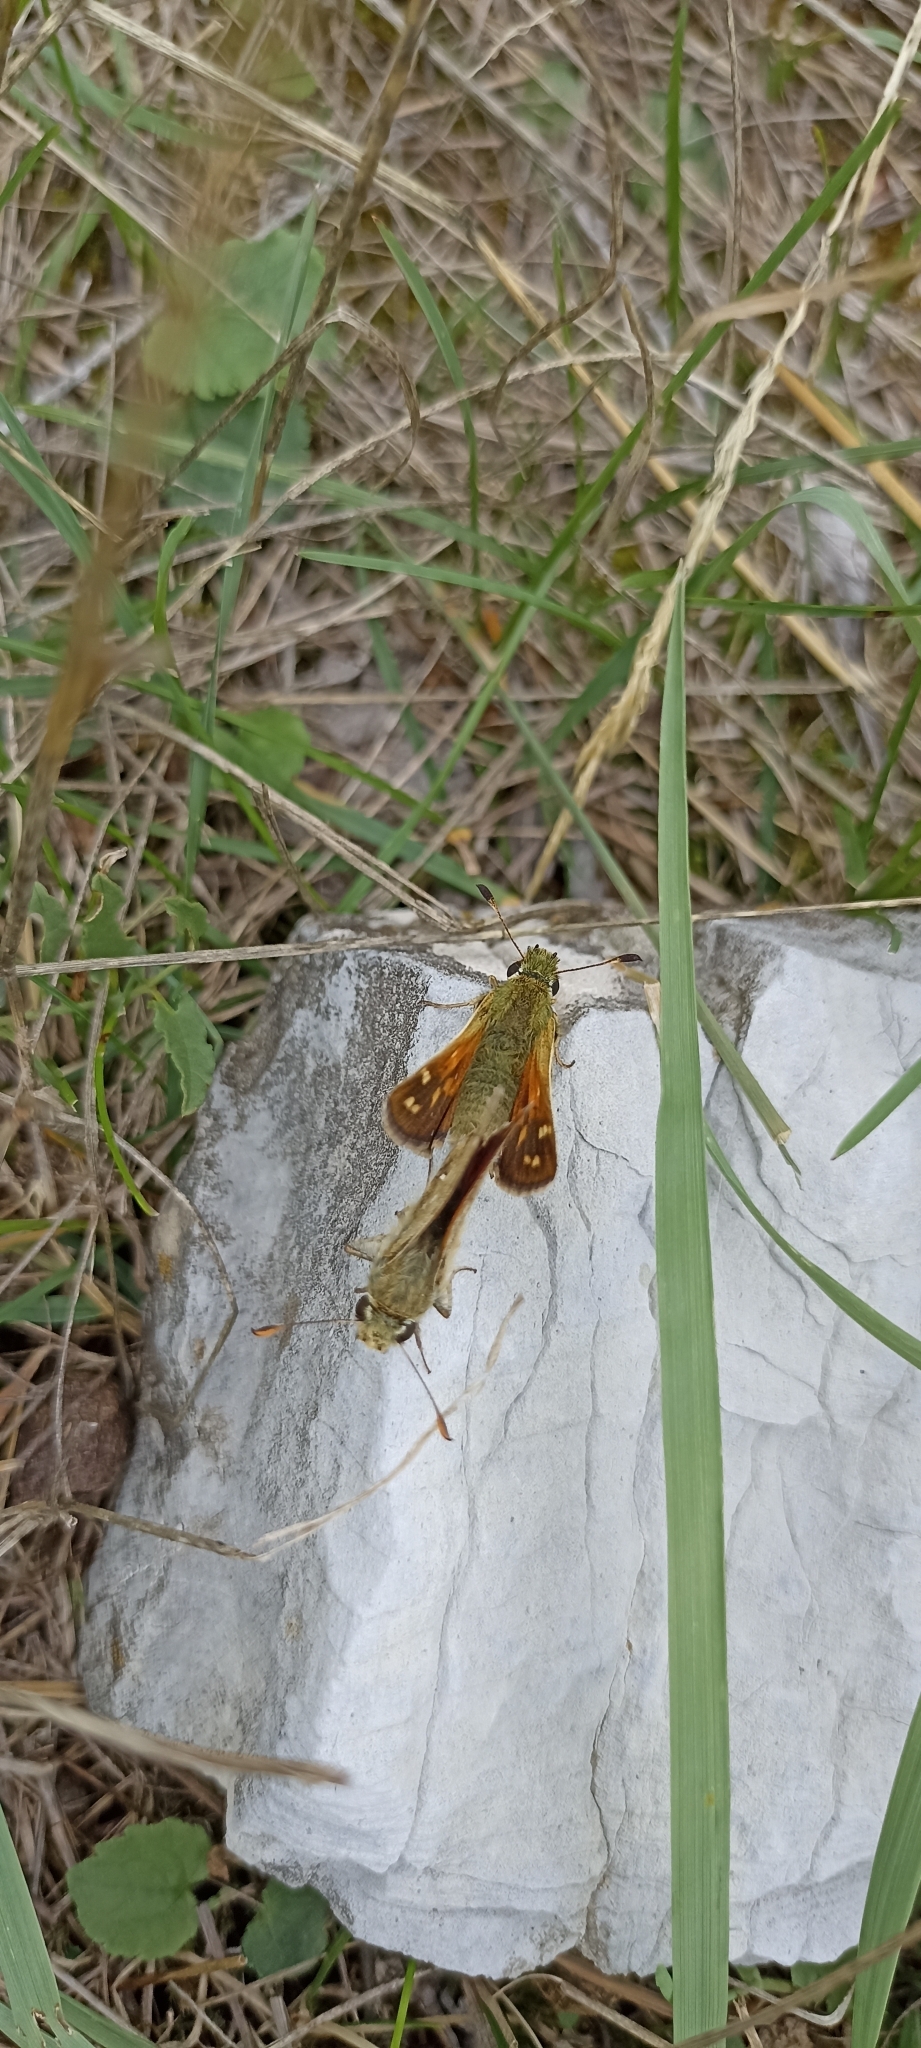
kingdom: Animalia
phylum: Arthropoda
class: Insecta
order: Lepidoptera
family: Hesperiidae
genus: Hesperia
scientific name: Hesperia comma
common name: Common branded skipper
